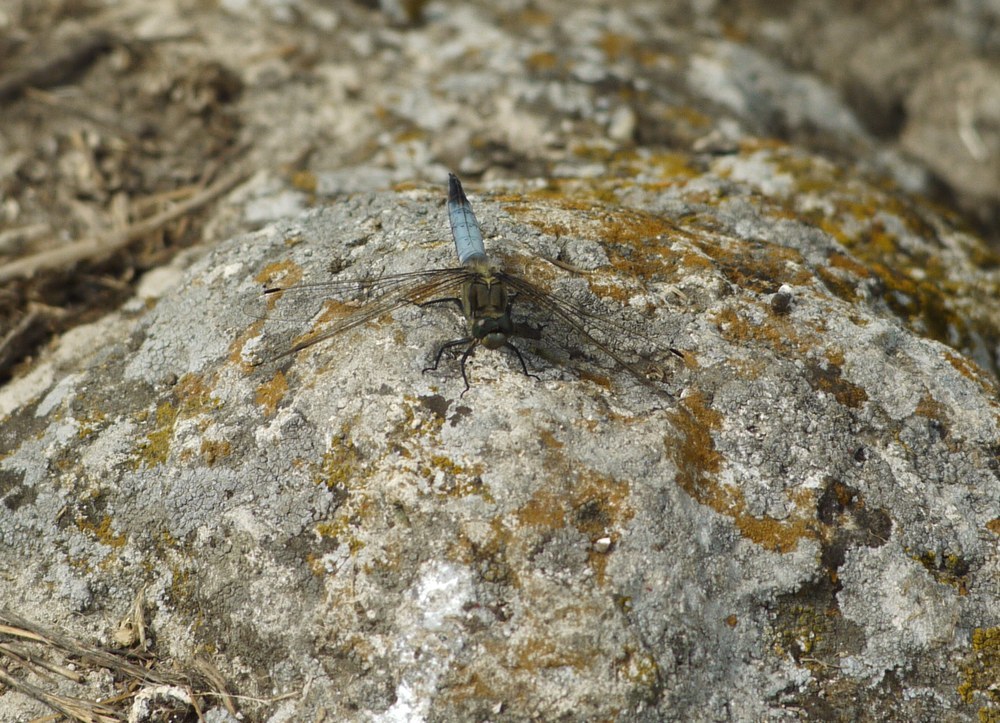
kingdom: Animalia
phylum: Arthropoda
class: Insecta
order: Odonata
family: Libellulidae
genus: Orthetrum
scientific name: Orthetrum cancellatum
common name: Black-tailed skimmer
